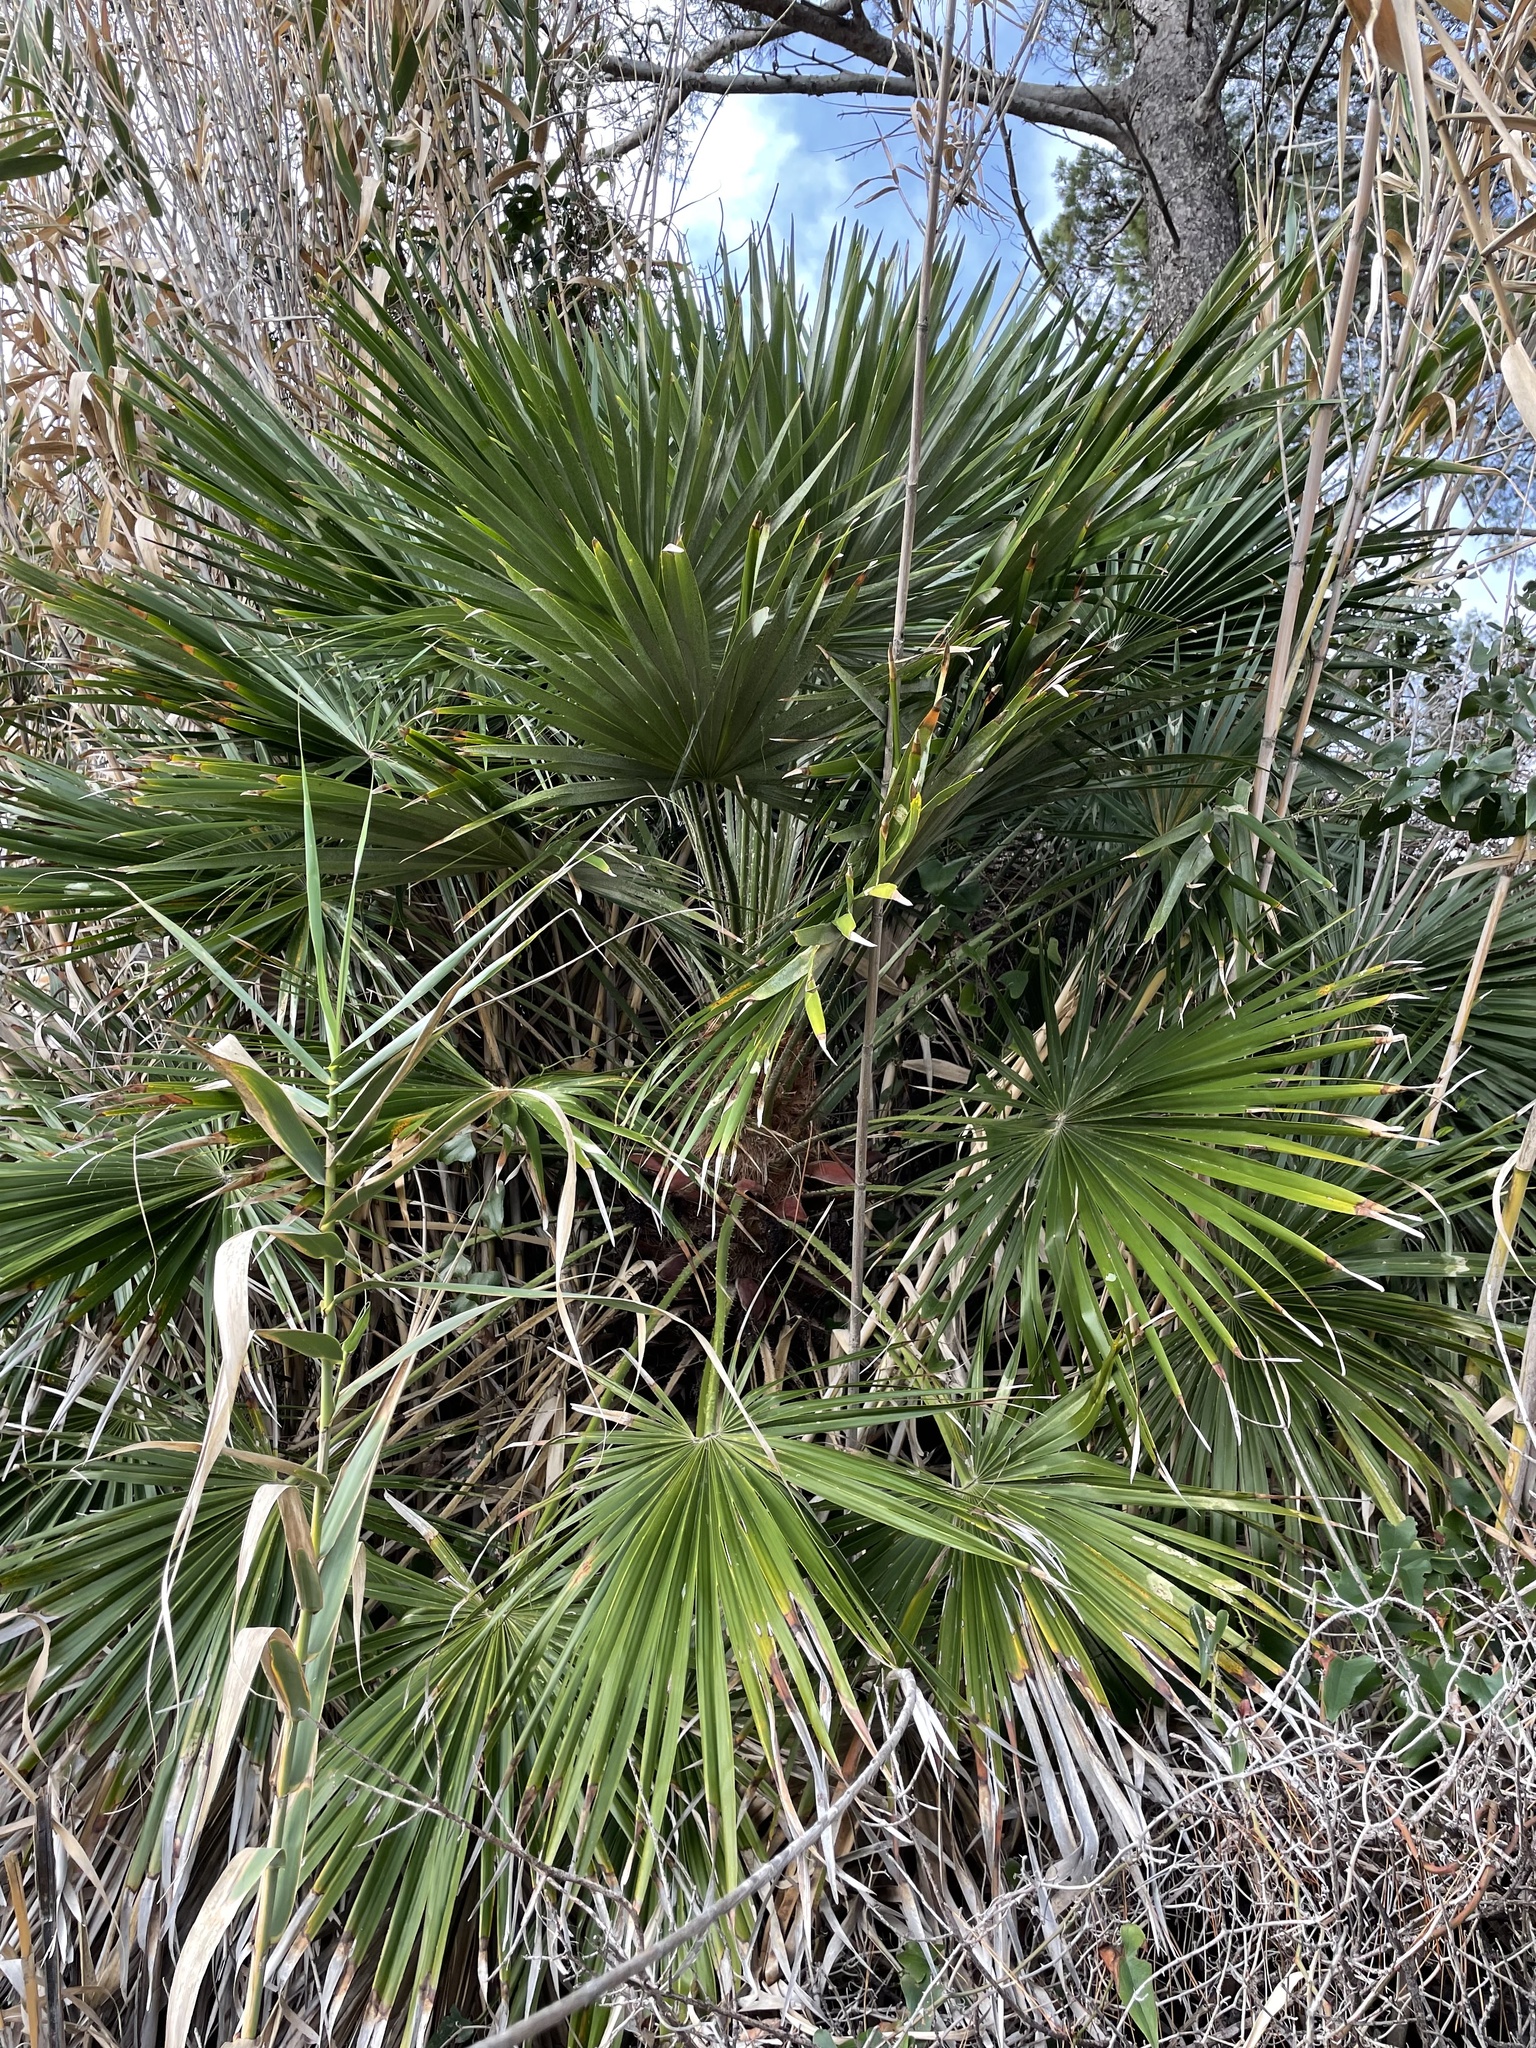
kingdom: Plantae
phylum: Tracheophyta
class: Liliopsida
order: Arecales
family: Arecaceae
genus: Chamaerops
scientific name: Chamaerops humilis
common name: Dwarf fan palm
